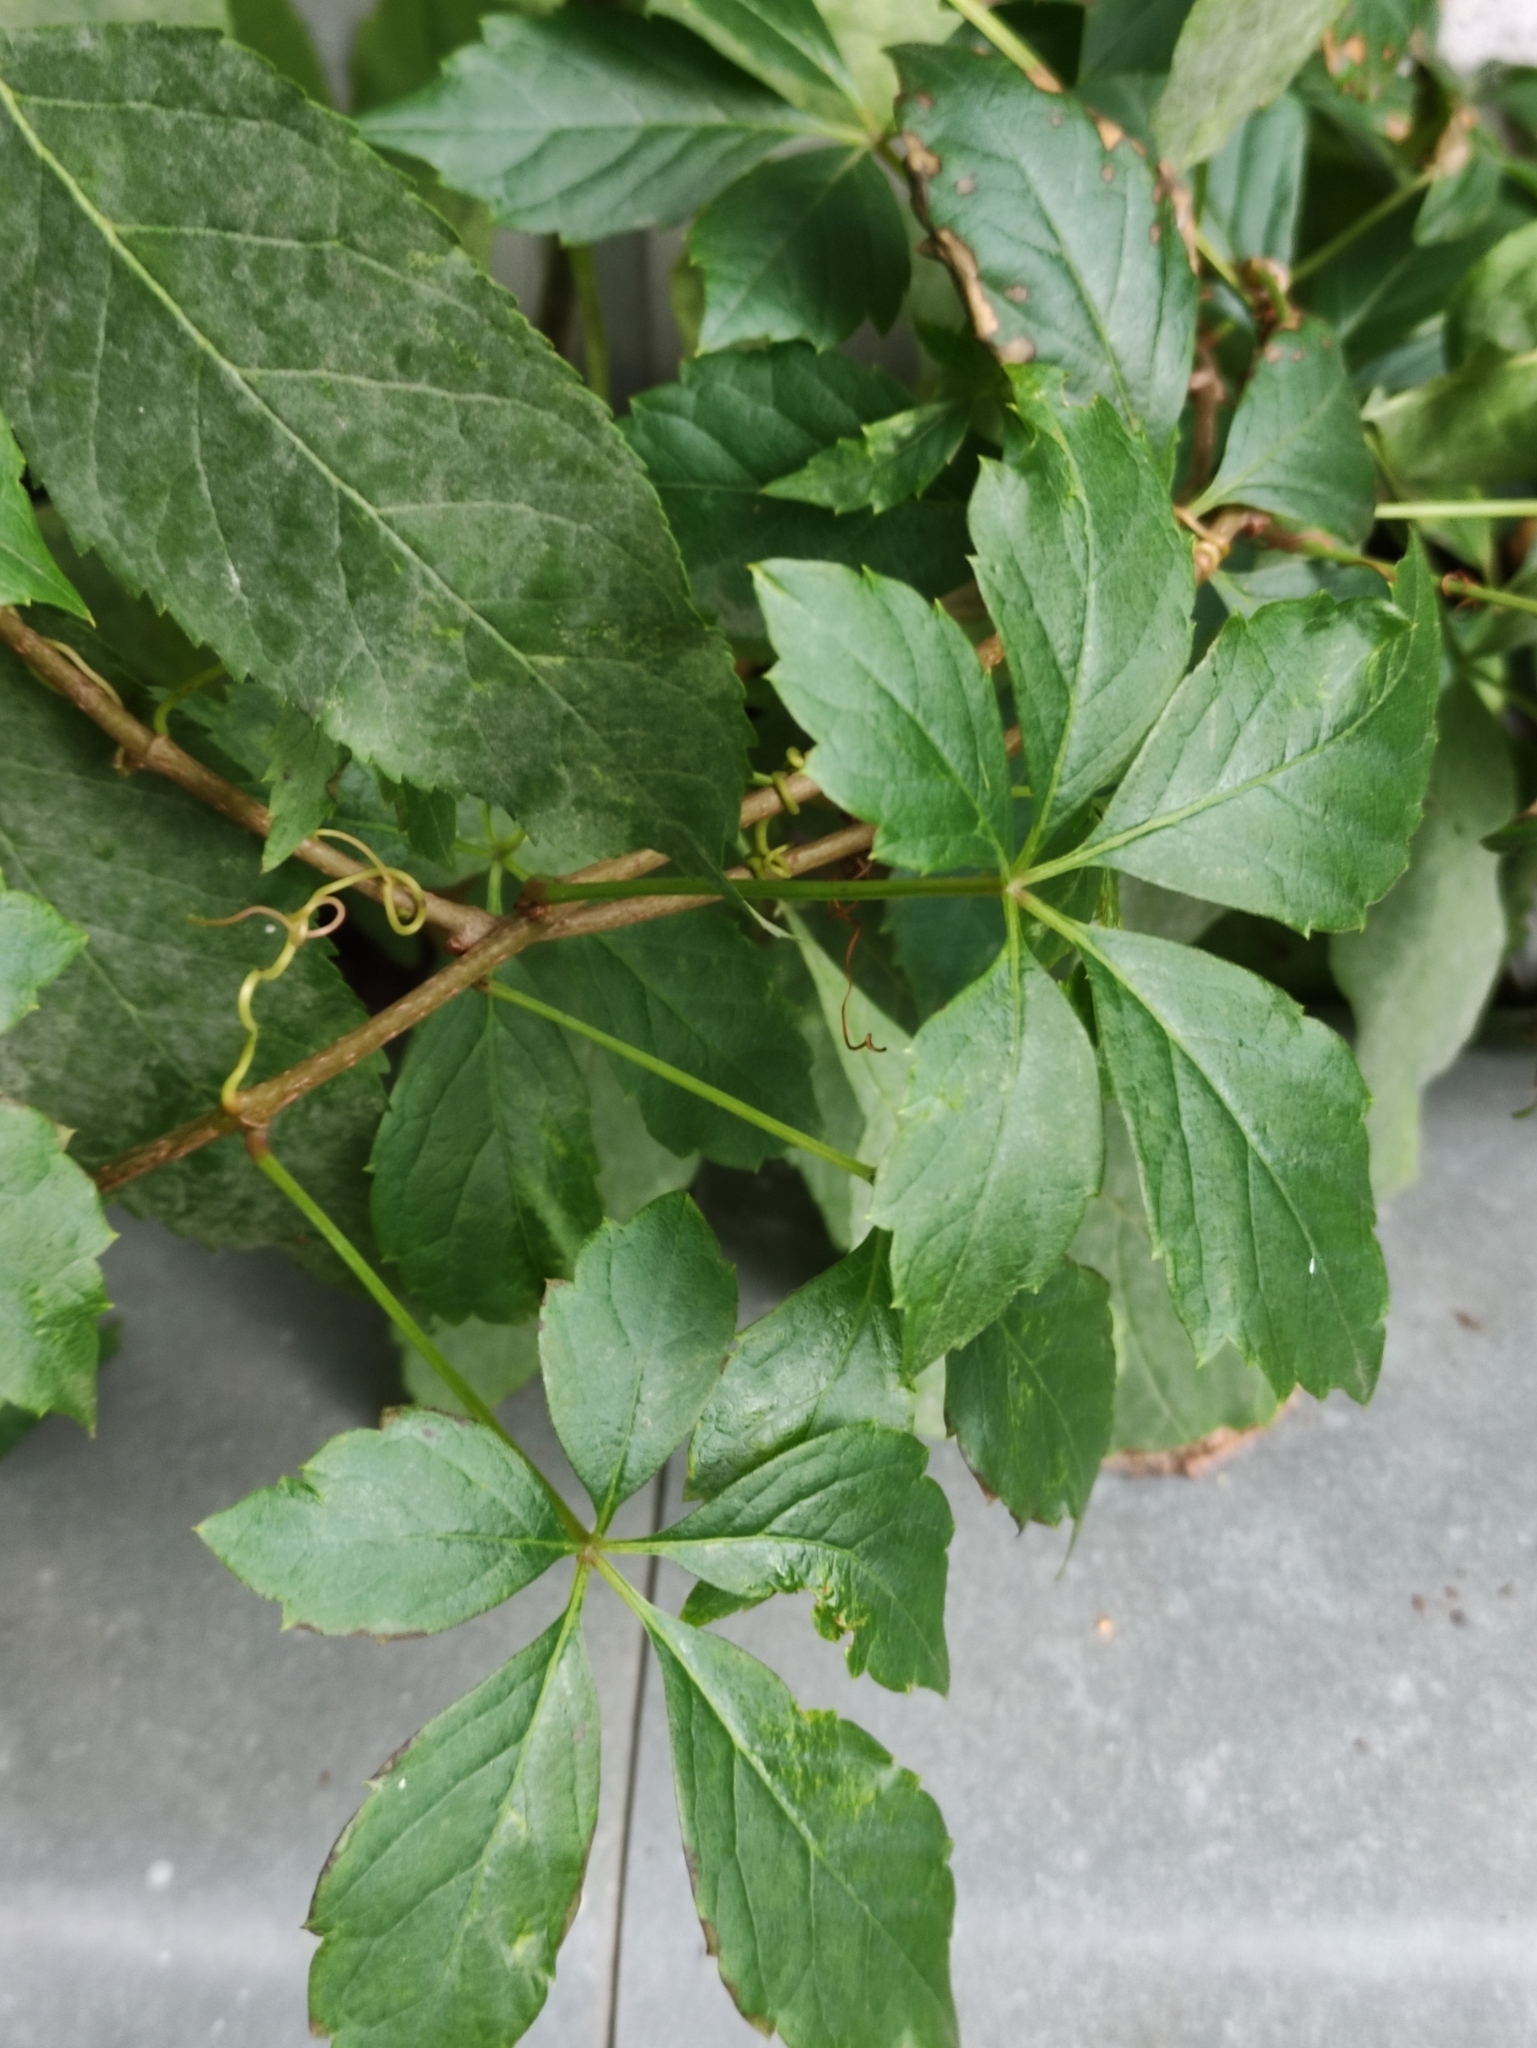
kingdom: Plantae
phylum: Tracheophyta
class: Magnoliopsida
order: Vitales
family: Vitaceae
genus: Parthenocissus
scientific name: Parthenocissus inserta
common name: False virginia-creeper
